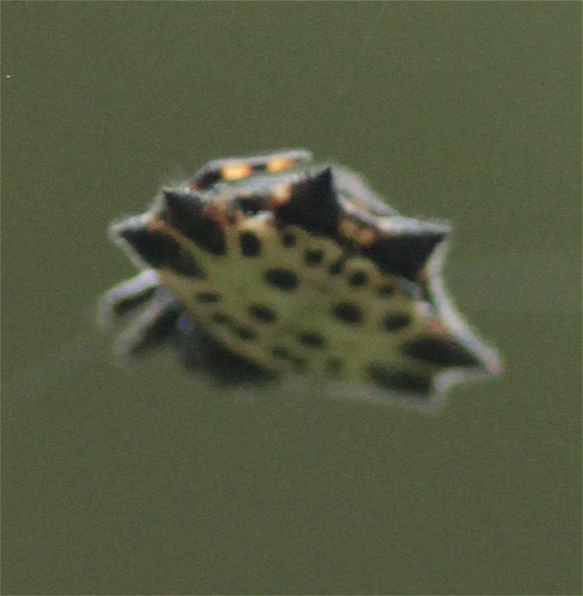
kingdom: Animalia
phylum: Arthropoda
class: Arachnida
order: Araneae
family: Araneidae
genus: Gasteracantha
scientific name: Gasteracantha cancriformis
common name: Orb weavers
